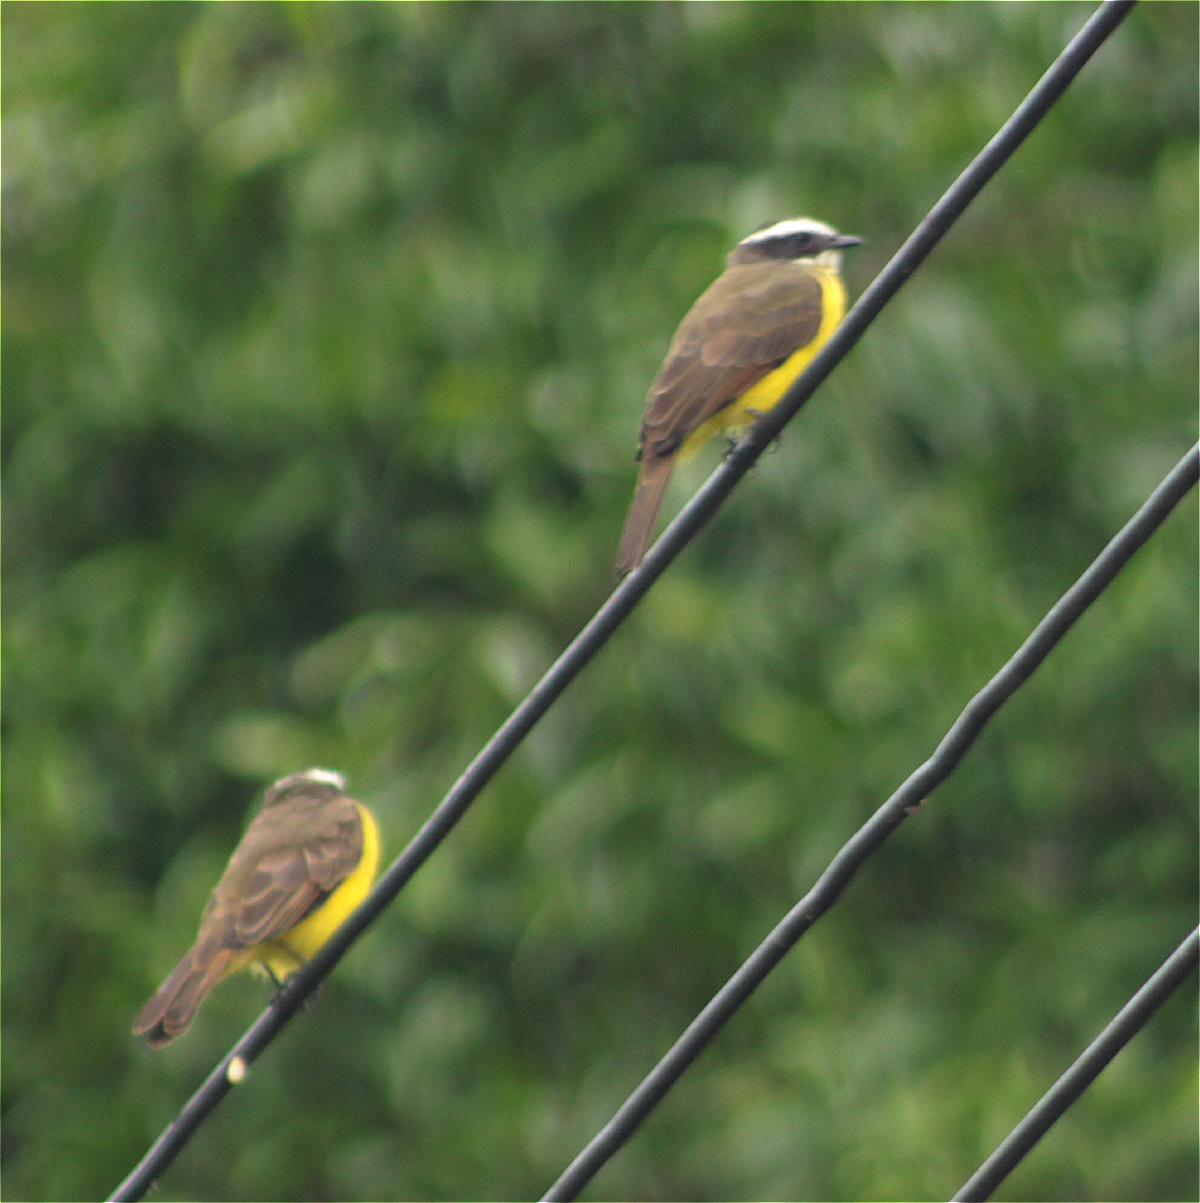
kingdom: Animalia
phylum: Chordata
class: Aves
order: Passeriformes
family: Tyrannidae
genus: Myiozetetes
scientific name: Myiozetetes similis
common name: Social flycatcher
